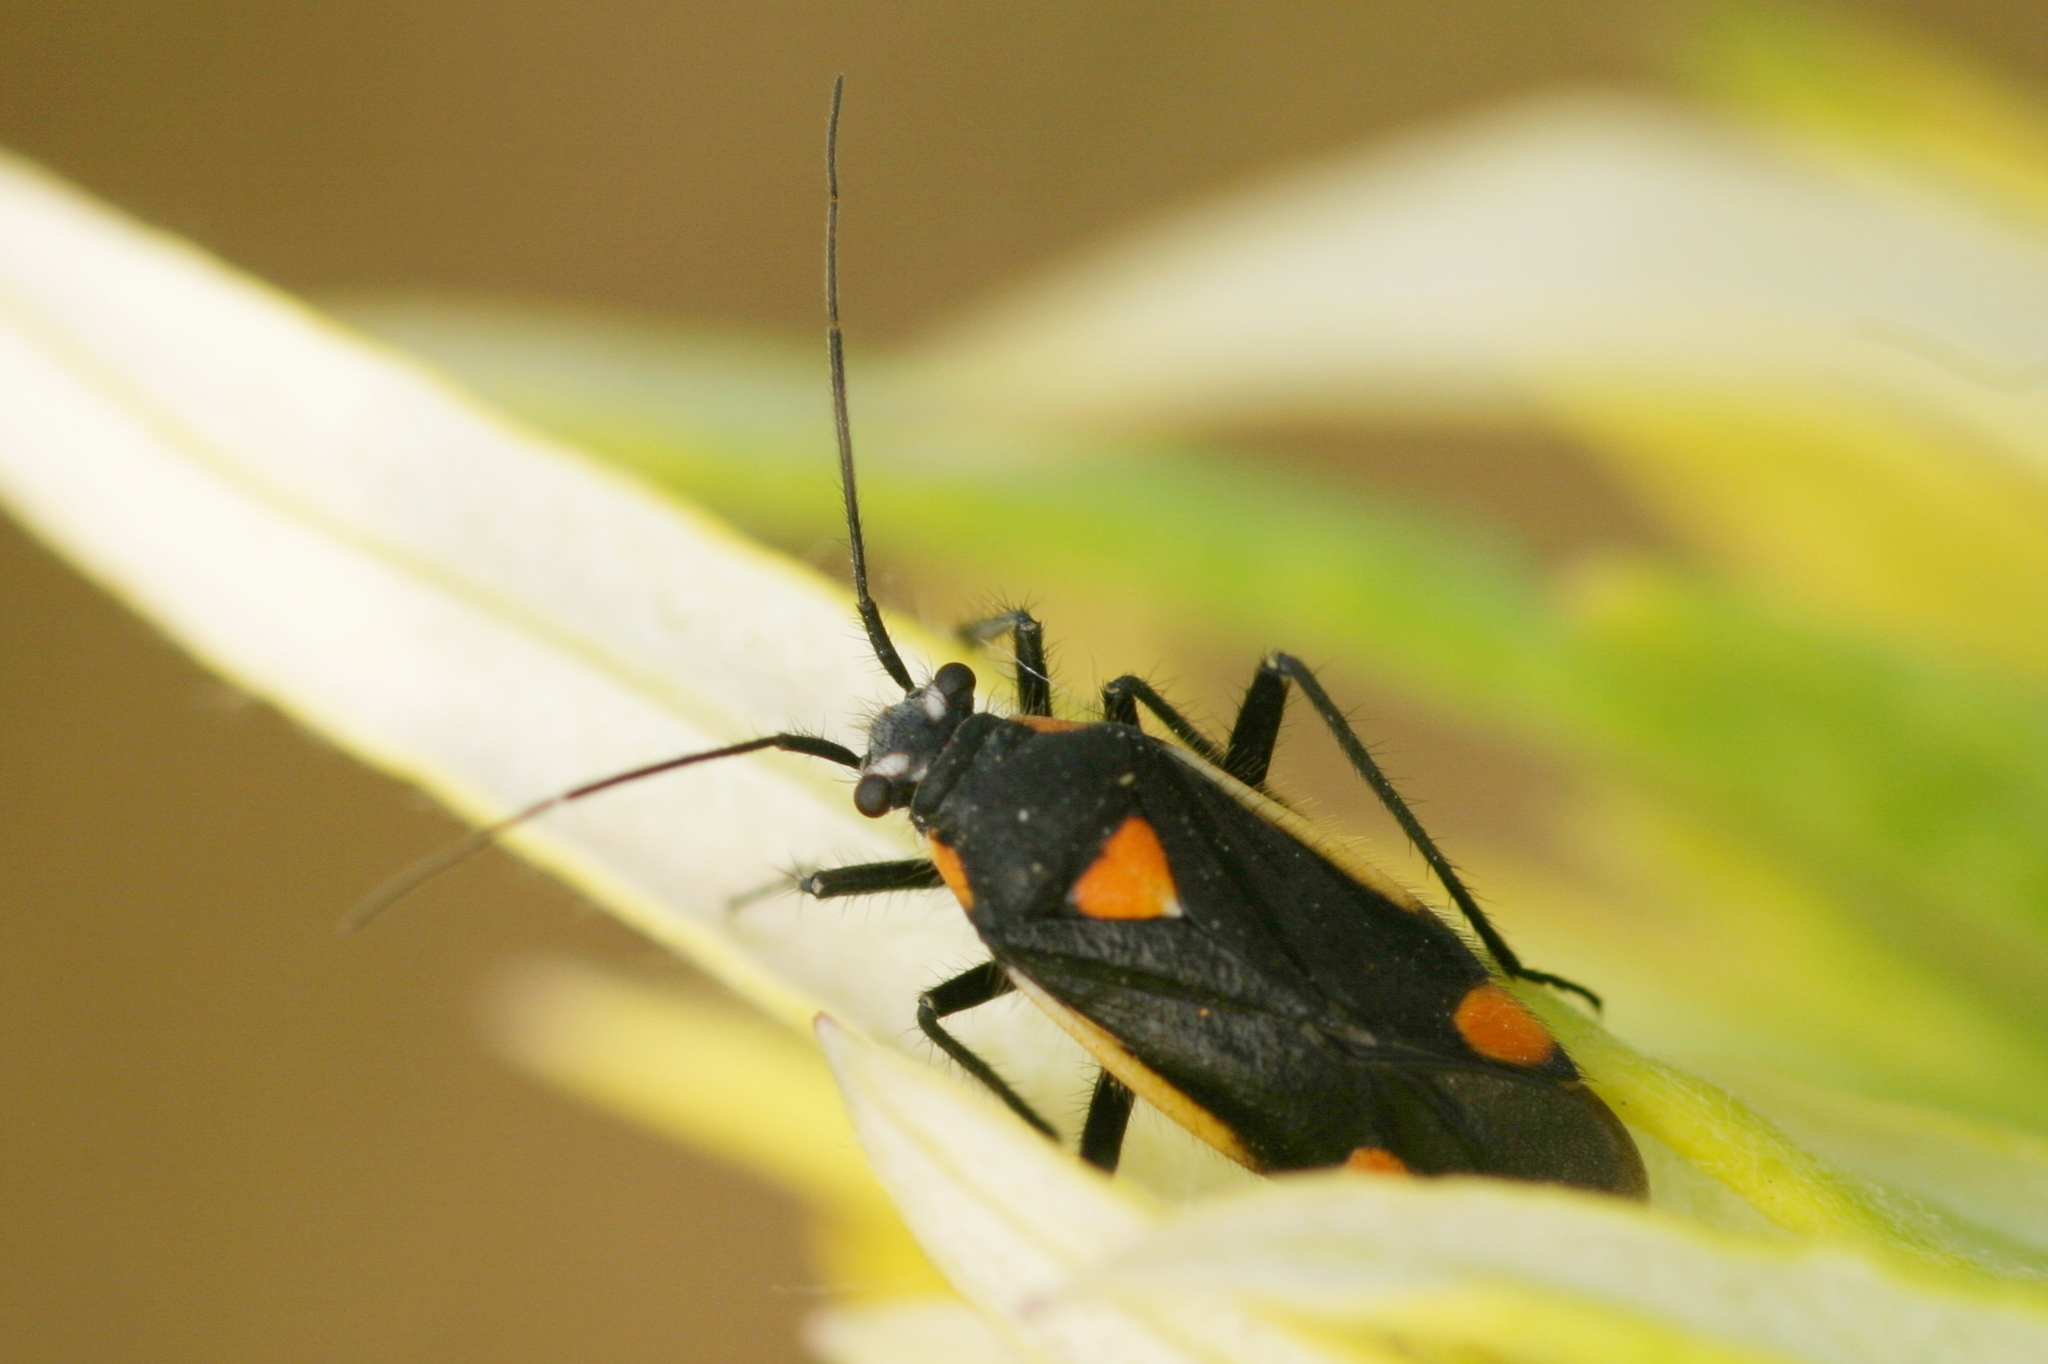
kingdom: Animalia
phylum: Arthropoda
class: Insecta
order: Hemiptera
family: Miridae
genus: Capsodes
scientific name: Capsodes gothicus
